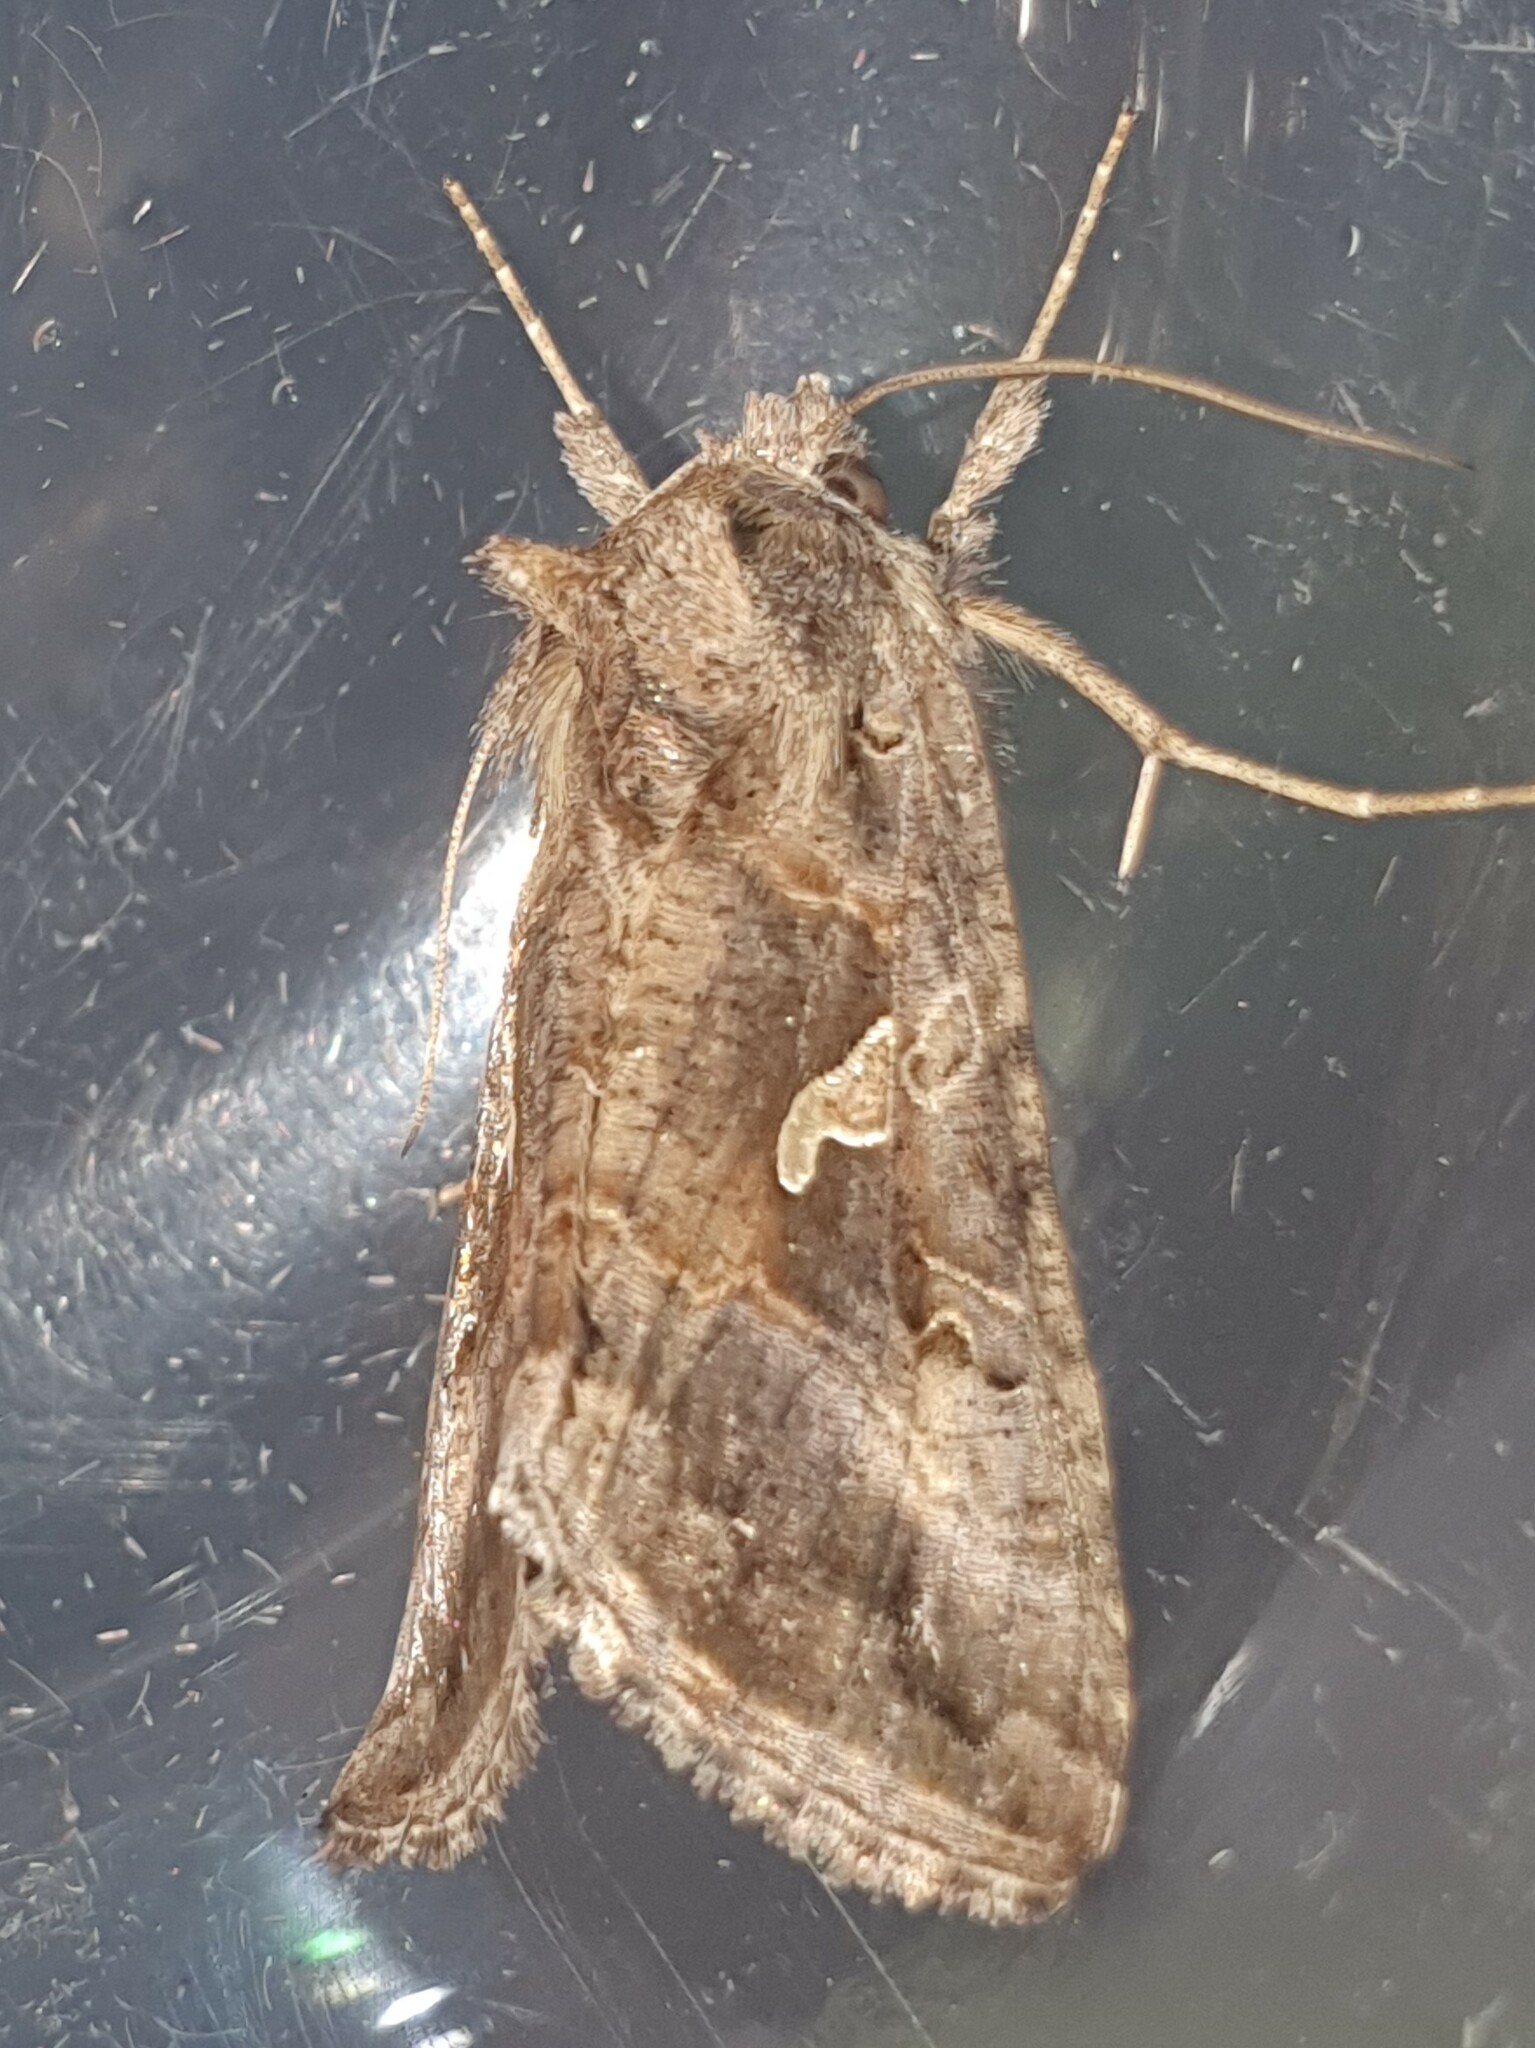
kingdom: Animalia
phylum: Arthropoda
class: Insecta
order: Lepidoptera
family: Noctuidae
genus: Autographa
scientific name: Autographa gamma
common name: Silver y
